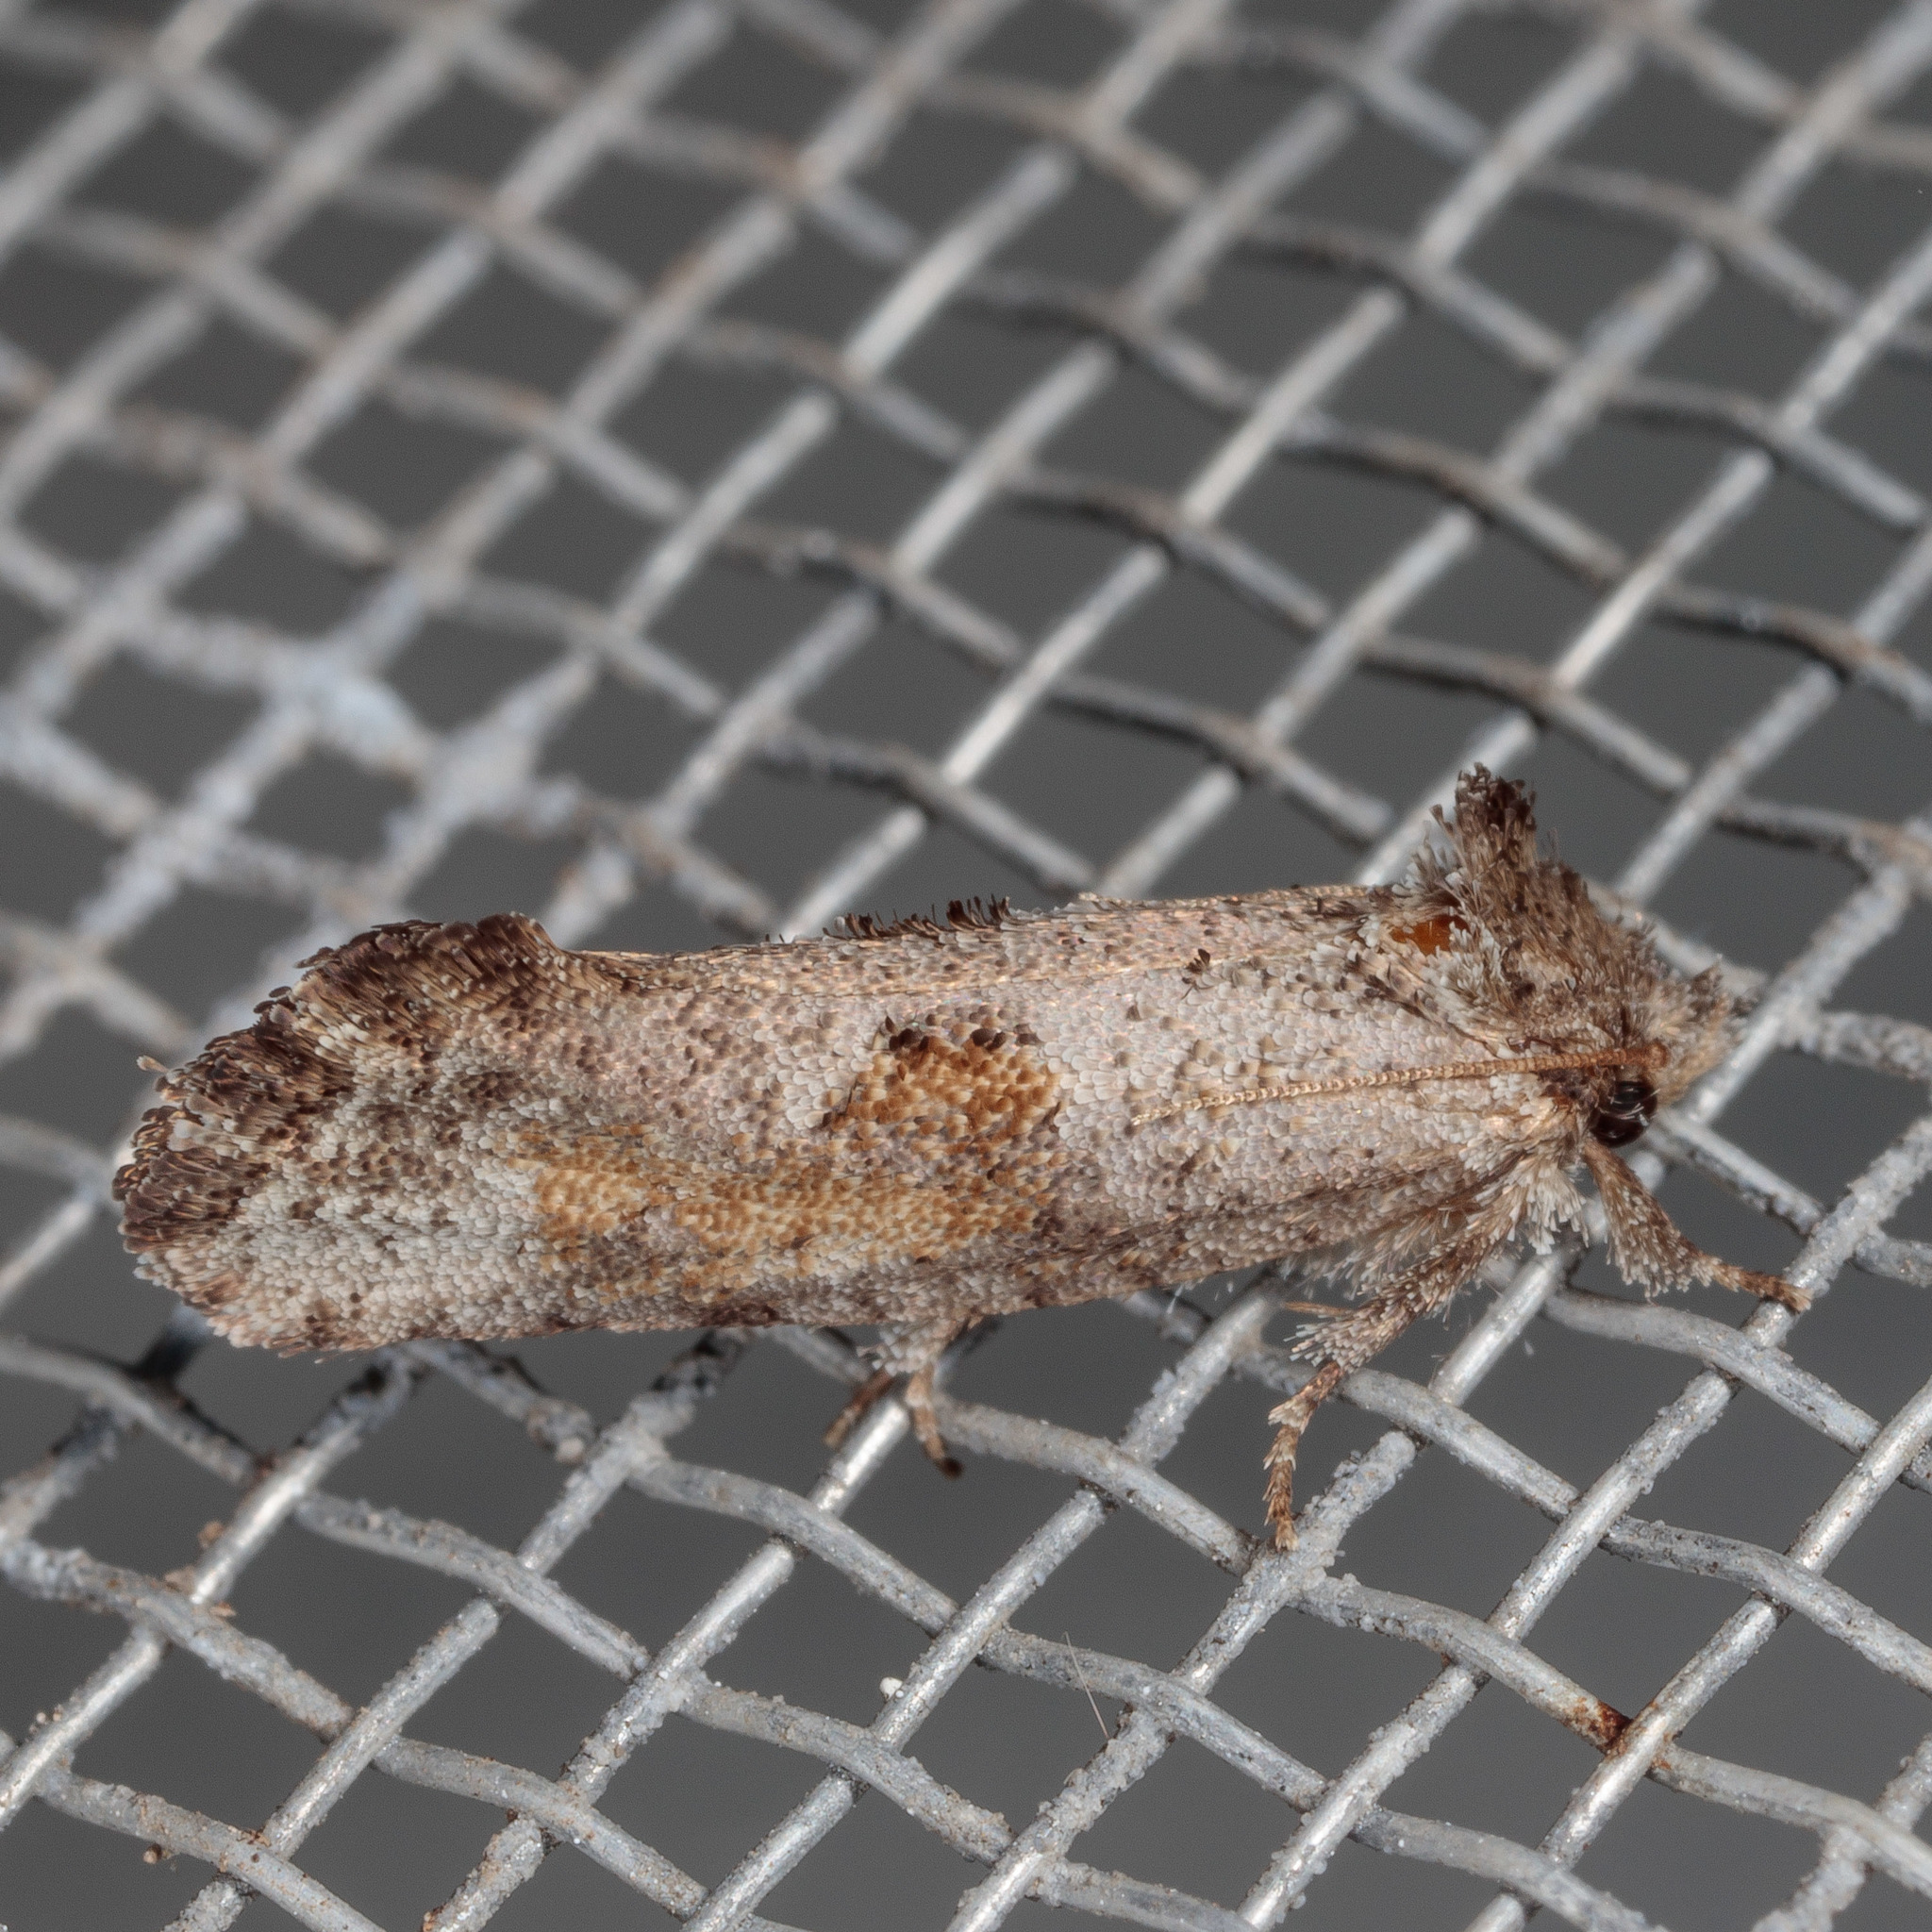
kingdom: Animalia
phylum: Arthropoda
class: Insecta
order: Lepidoptera
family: Tineidae
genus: Acrolophus
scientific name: Acrolophus piger
